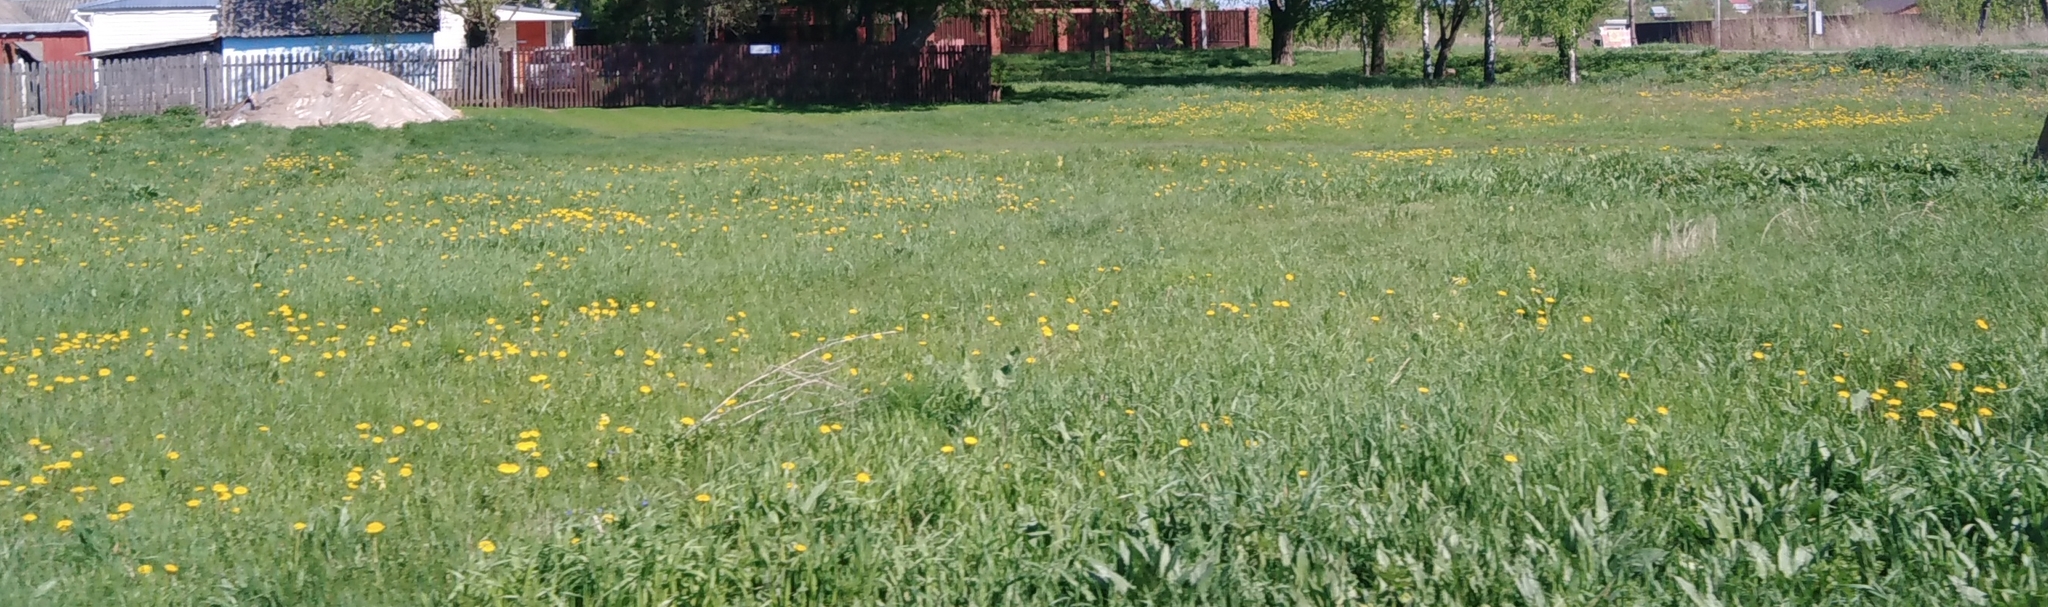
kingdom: Plantae
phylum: Tracheophyta
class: Magnoliopsida
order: Asterales
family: Asteraceae
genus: Taraxacum
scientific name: Taraxacum officinale
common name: Common dandelion
